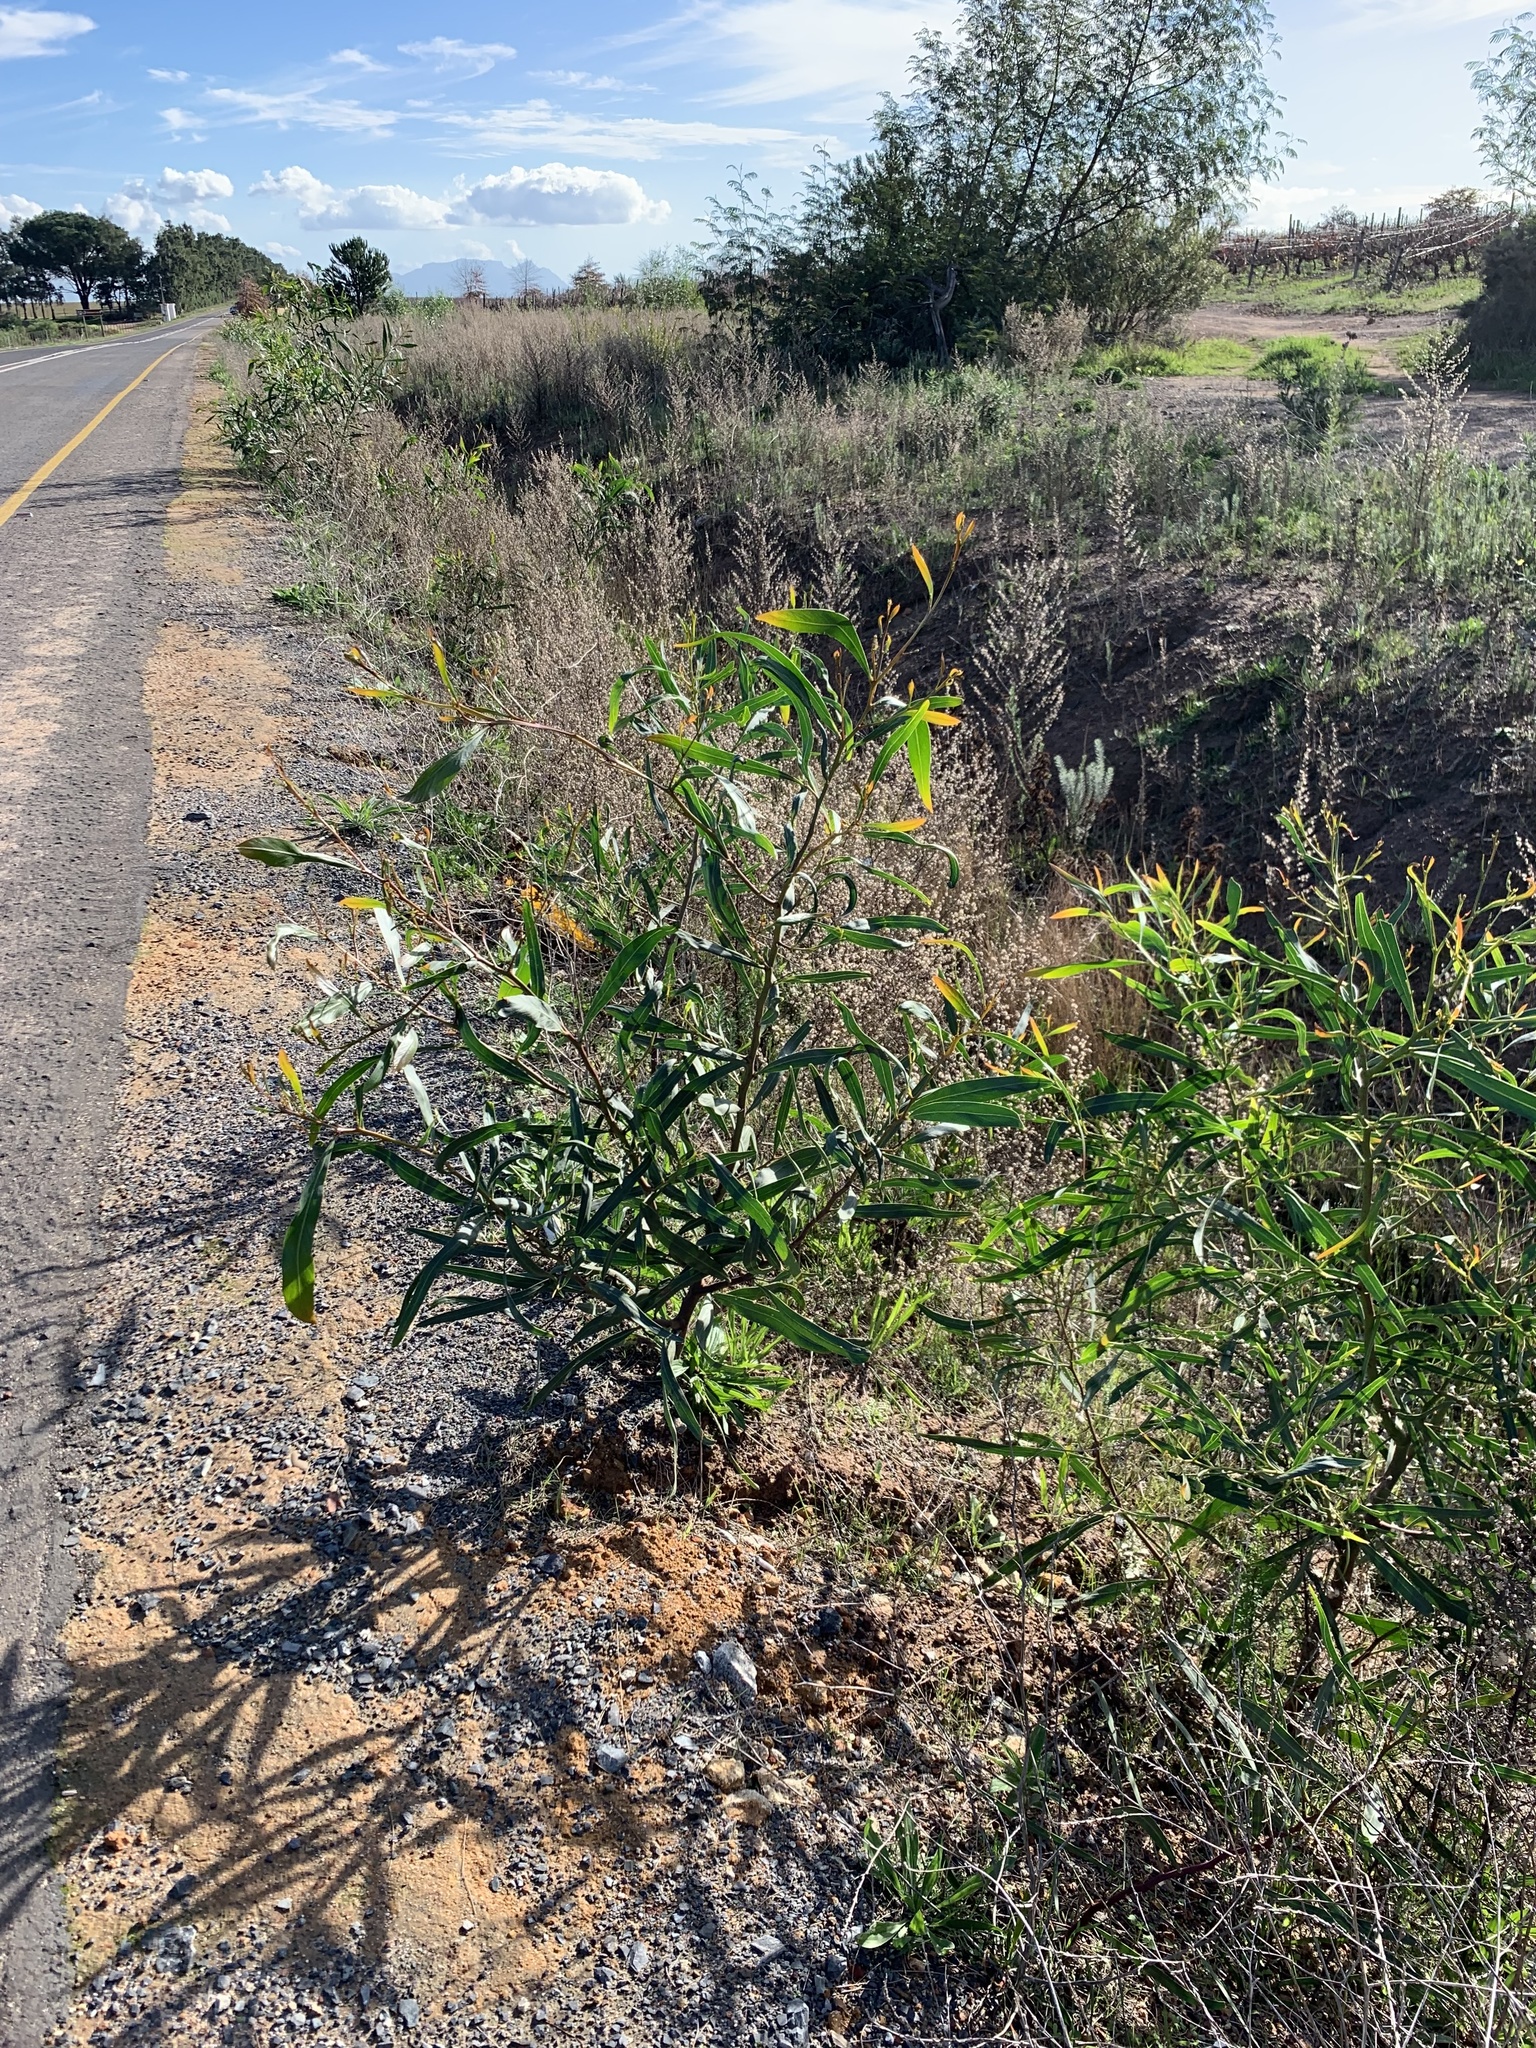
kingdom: Plantae
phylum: Tracheophyta
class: Magnoliopsida
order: Fabales
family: Fabaceae
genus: Acacia
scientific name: Acacia saligna
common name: Orange wattle
